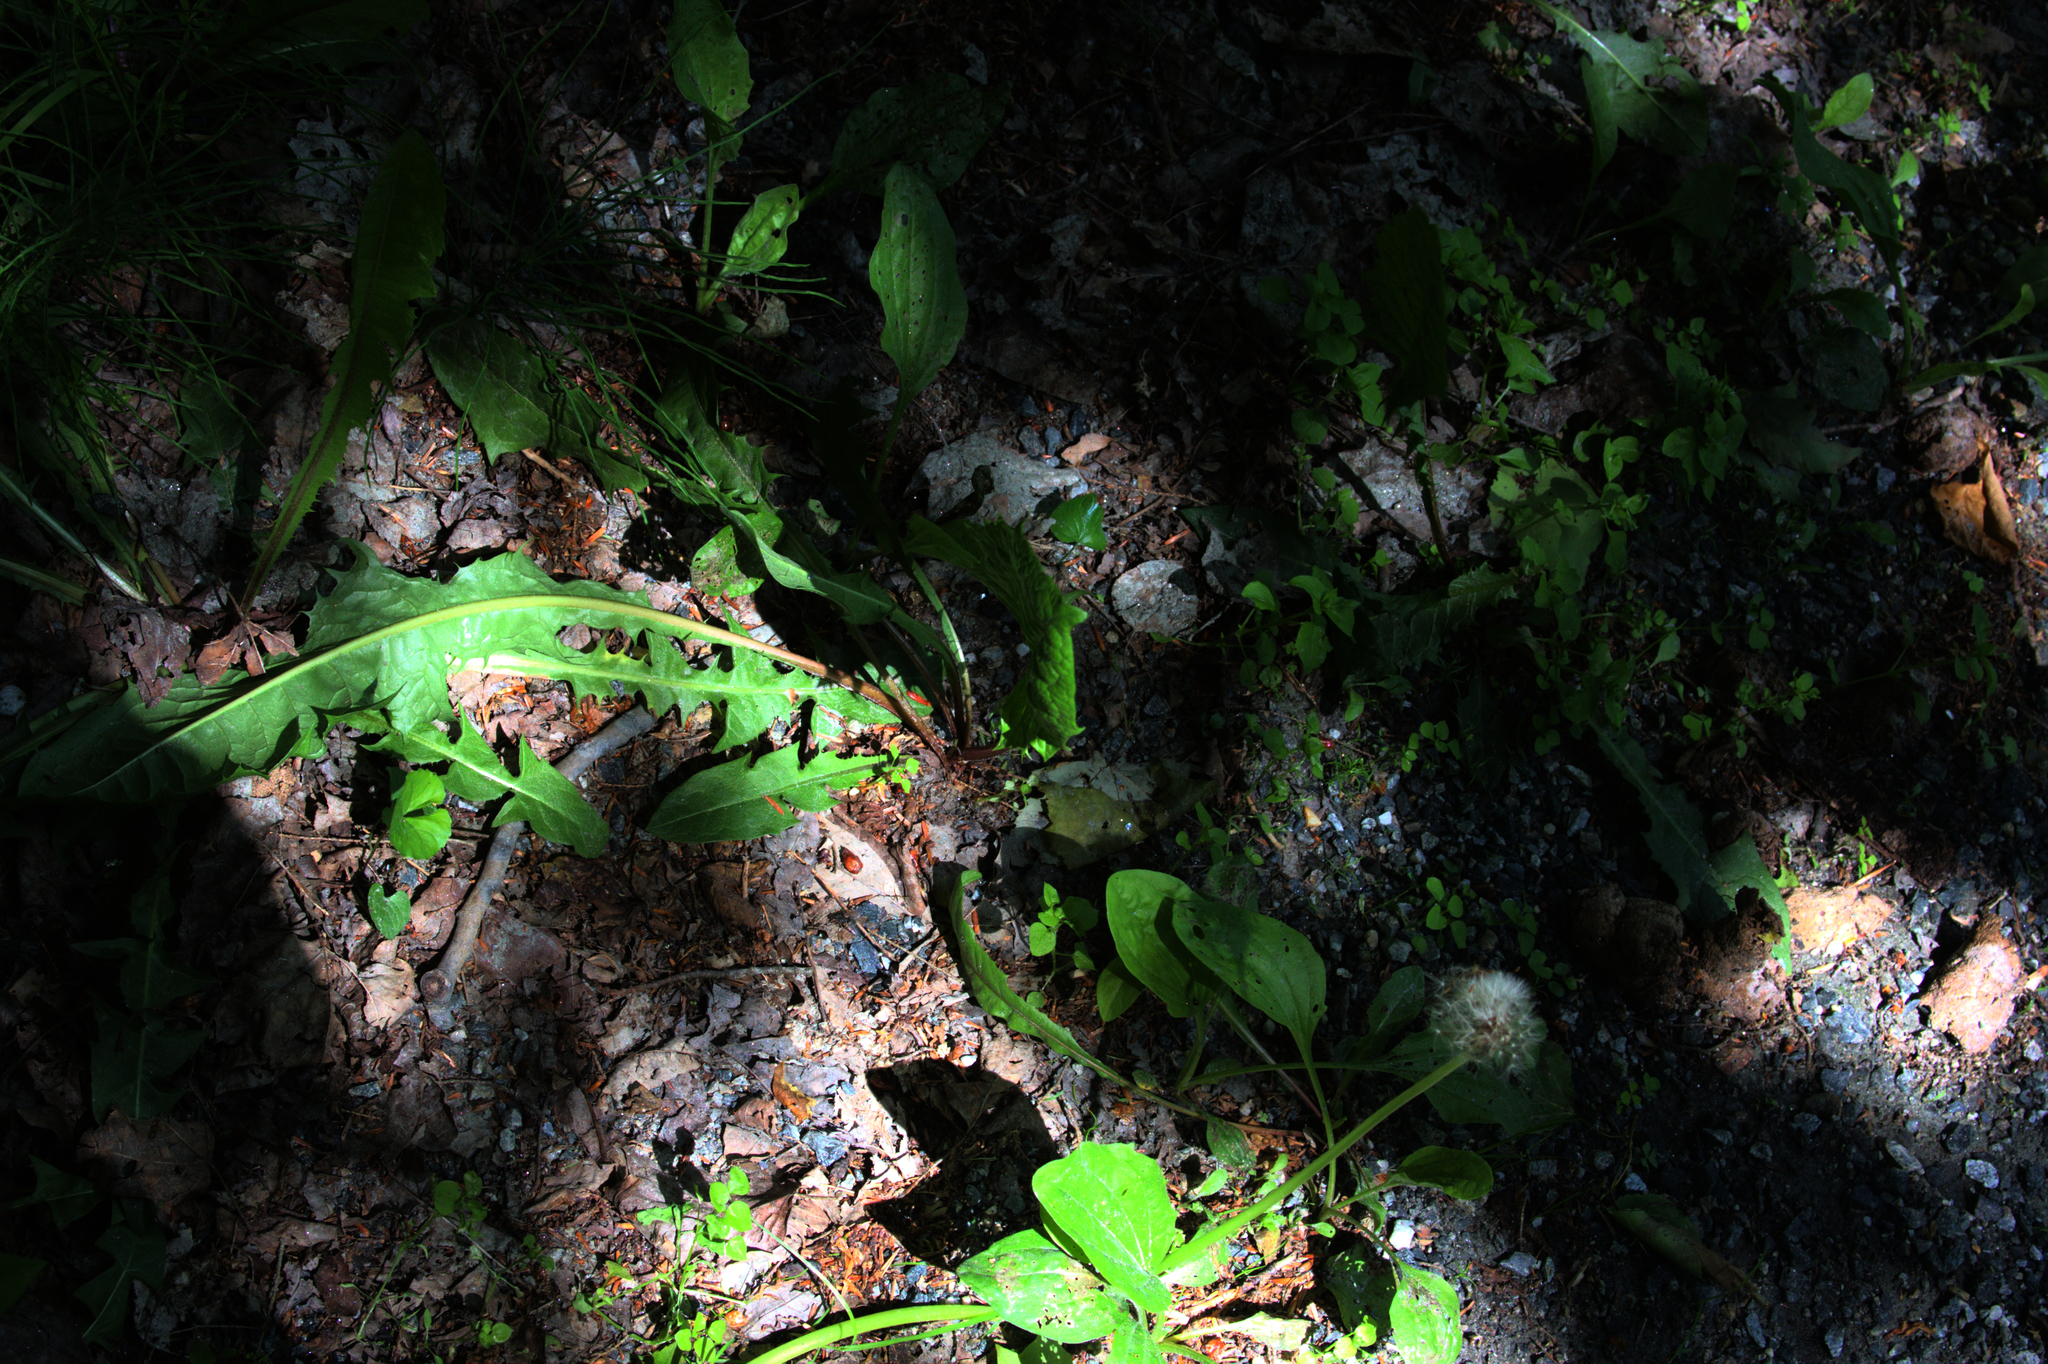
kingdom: Plantae
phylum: Tracheophyta
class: Magnoliopsida
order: Asterales
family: Asteraceae
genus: Taraxacum
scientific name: Taraxacum officinale
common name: Common dandelion
